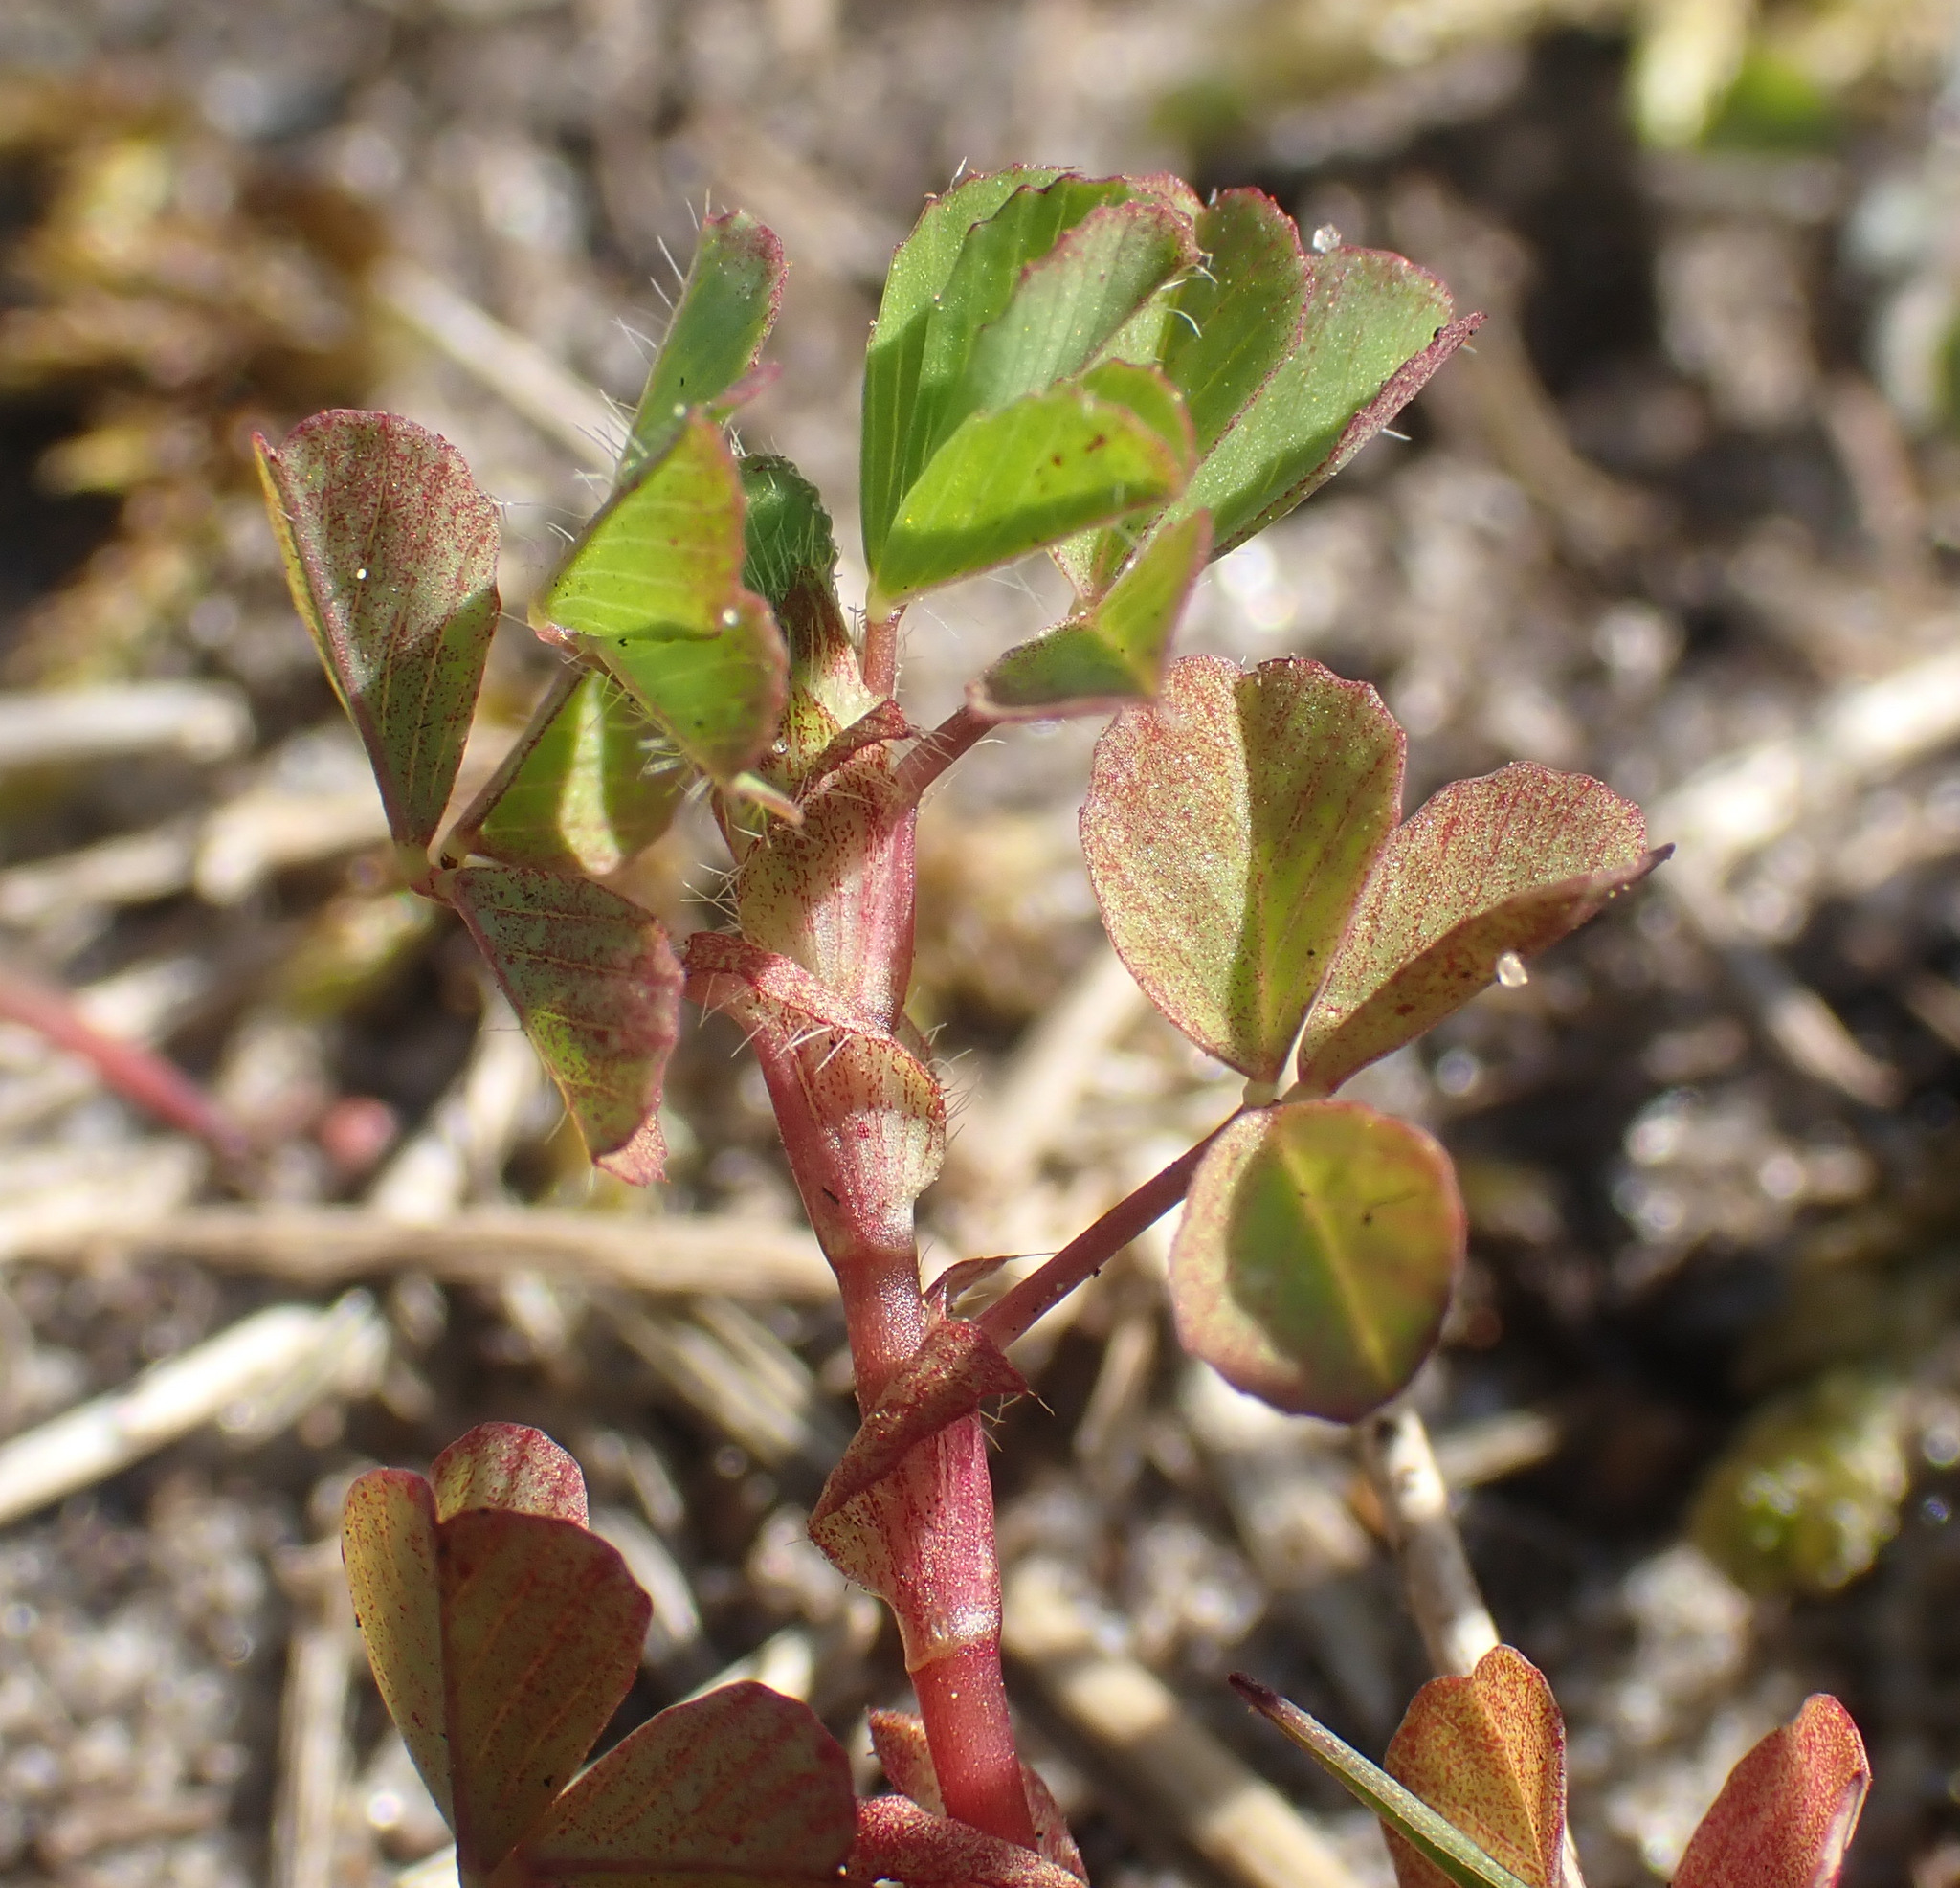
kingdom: Plantae
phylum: Tracheophyta
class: Magnoliopsida
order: Fabales
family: Fabaceae
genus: Trifolium
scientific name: Trifolium dubium
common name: Suckling clover
